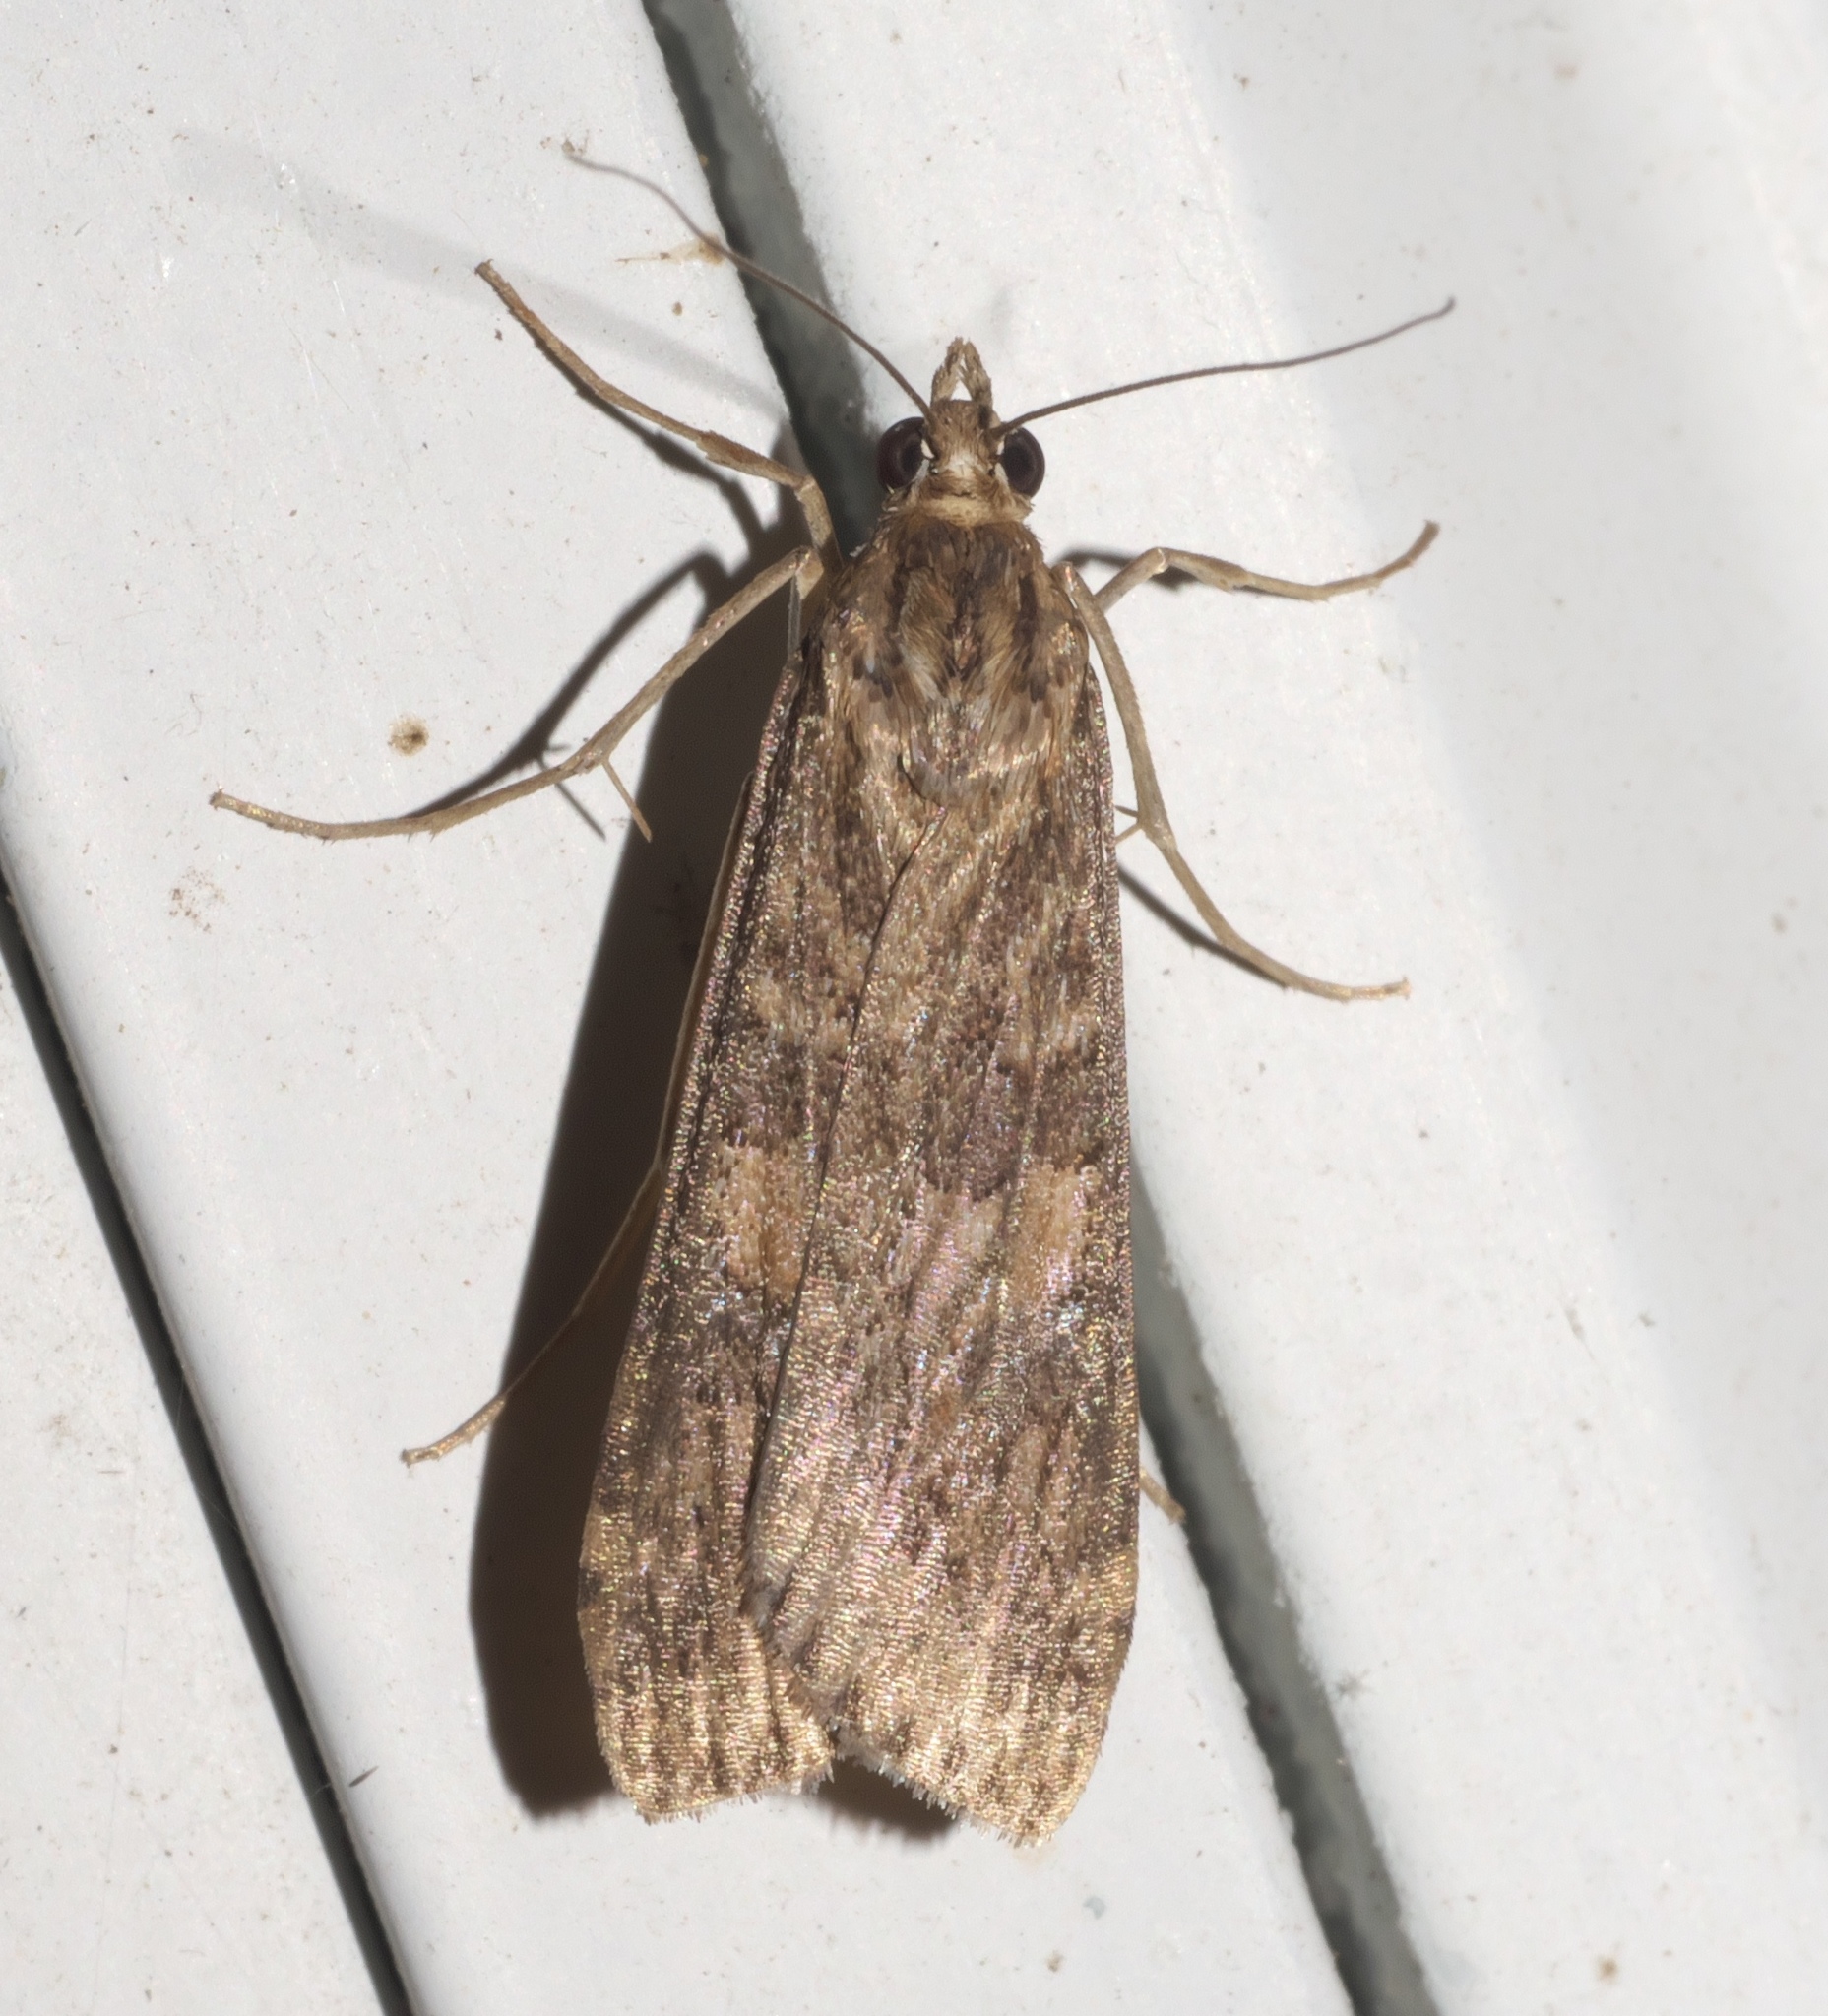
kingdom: Animalia
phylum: Arthropoda
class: Insecta
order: Lepidoptera
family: Crambidae
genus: Nomophila
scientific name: Nomophila nearctica
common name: American rush veneer
